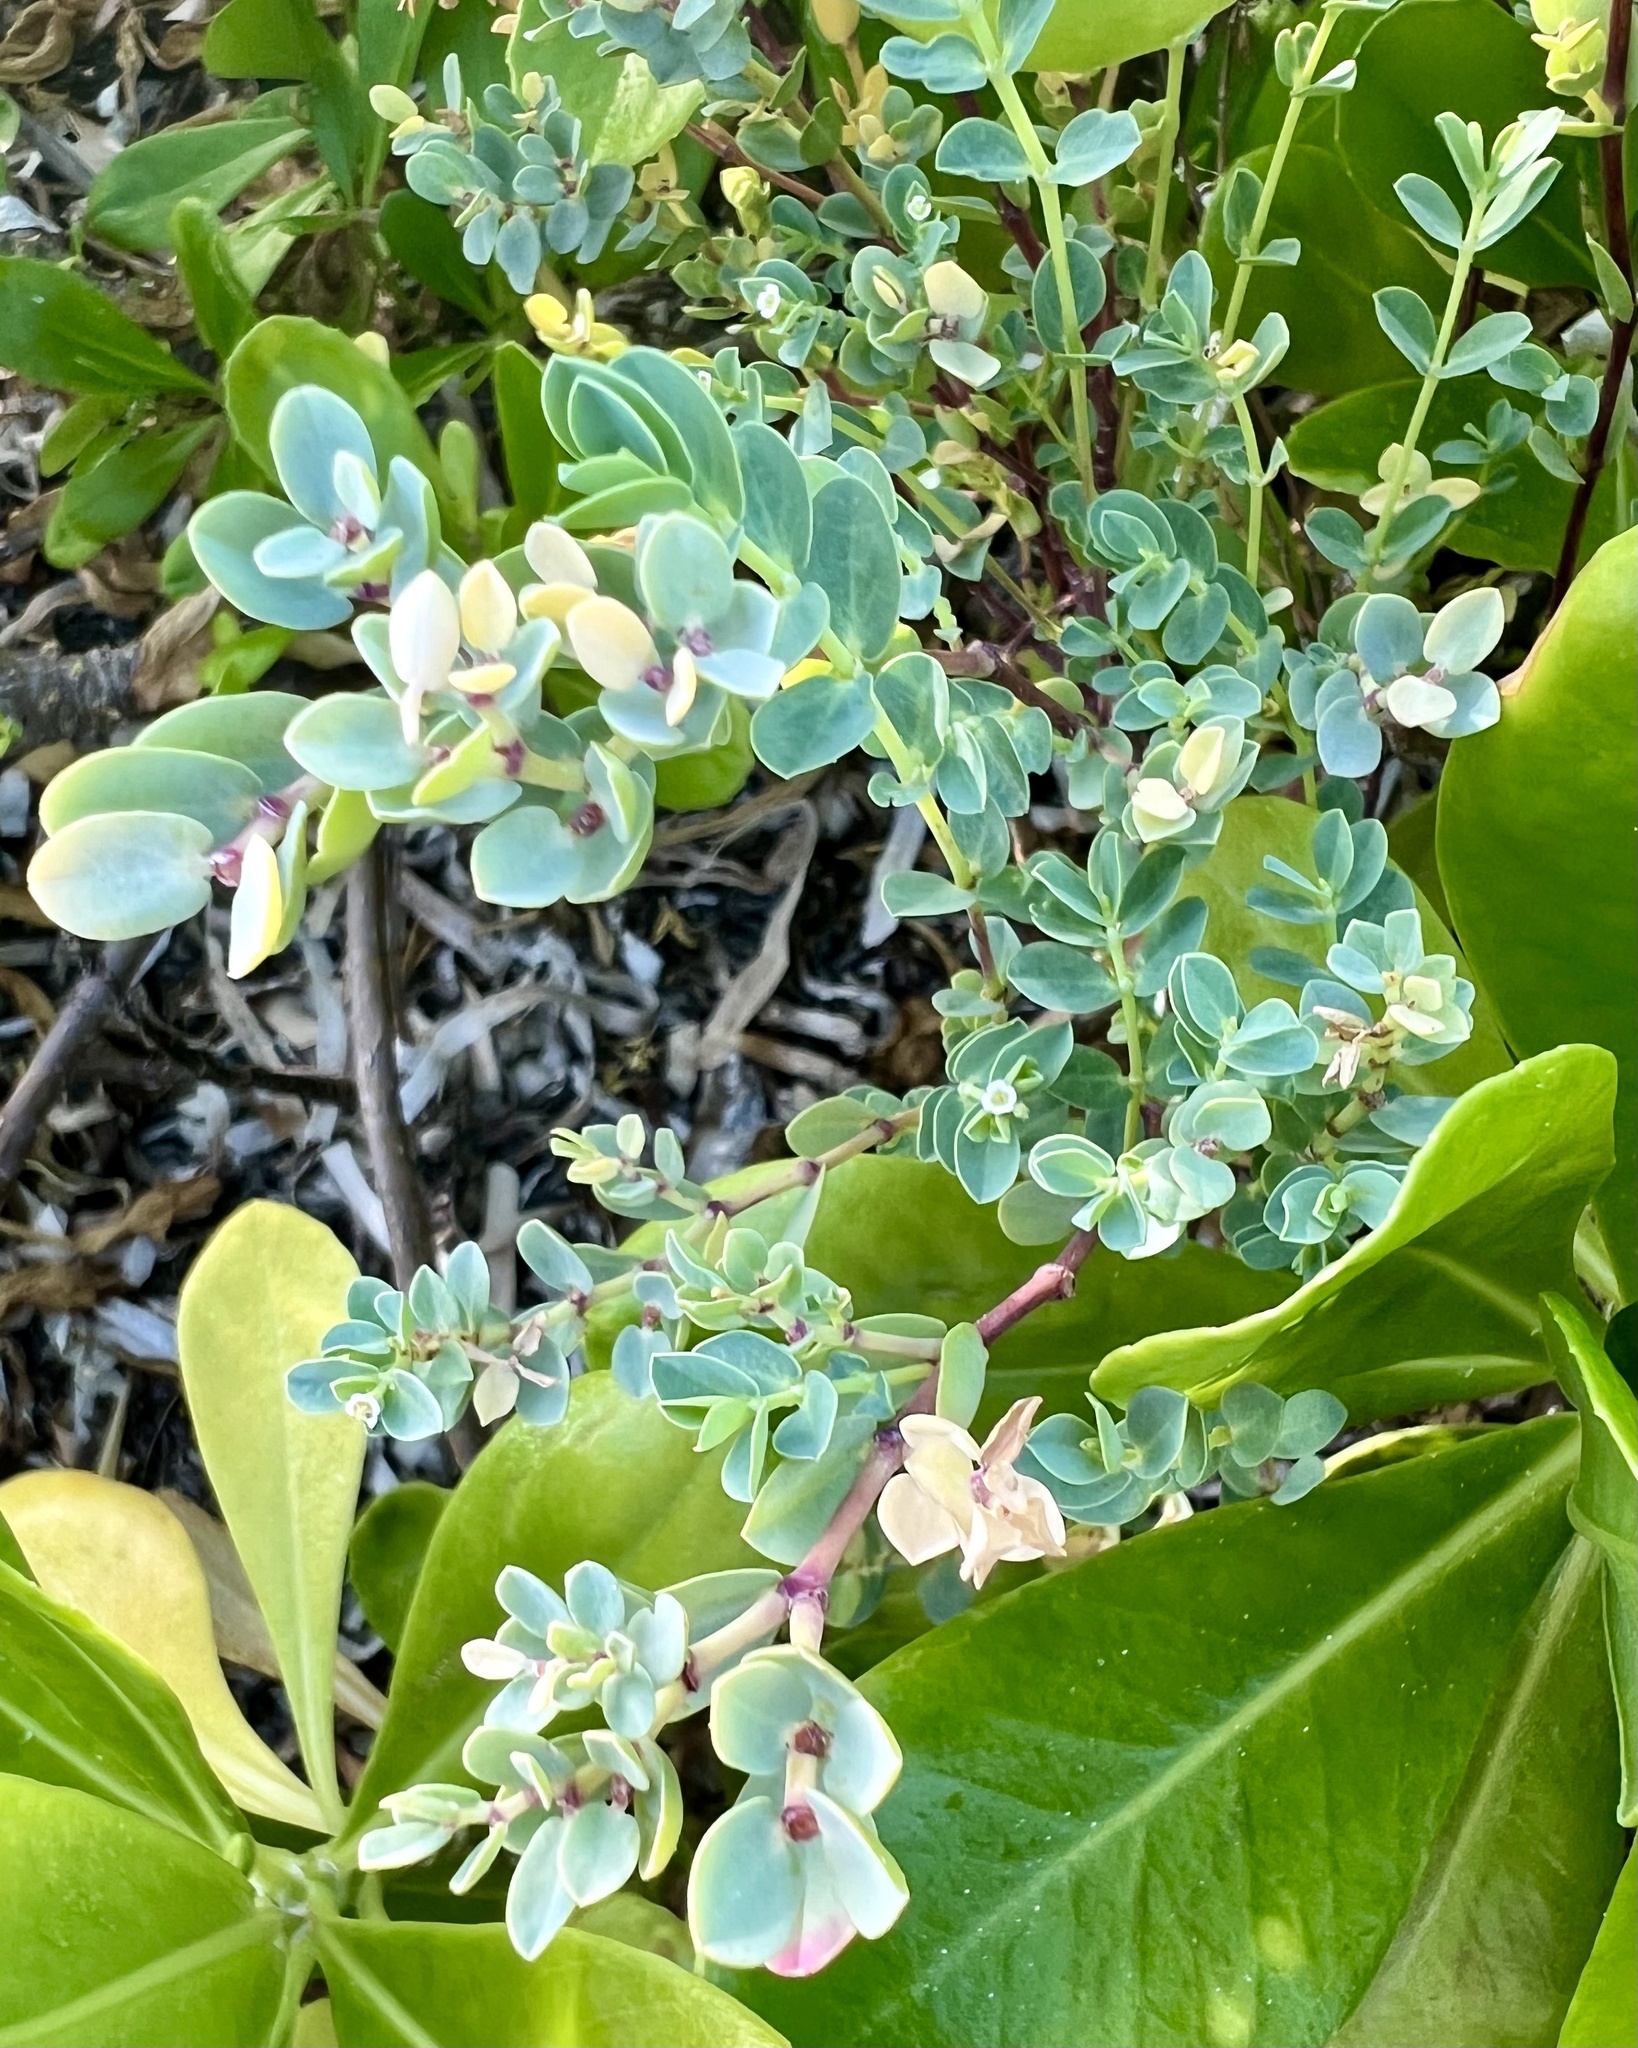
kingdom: Plantae
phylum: Tracheophyta
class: Magnoliopsida
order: Malpighiales
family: Euphorbiaceae
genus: Euphorbia
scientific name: Euphorbia mesembryanthemifolia
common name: Coastal beach sandmat
